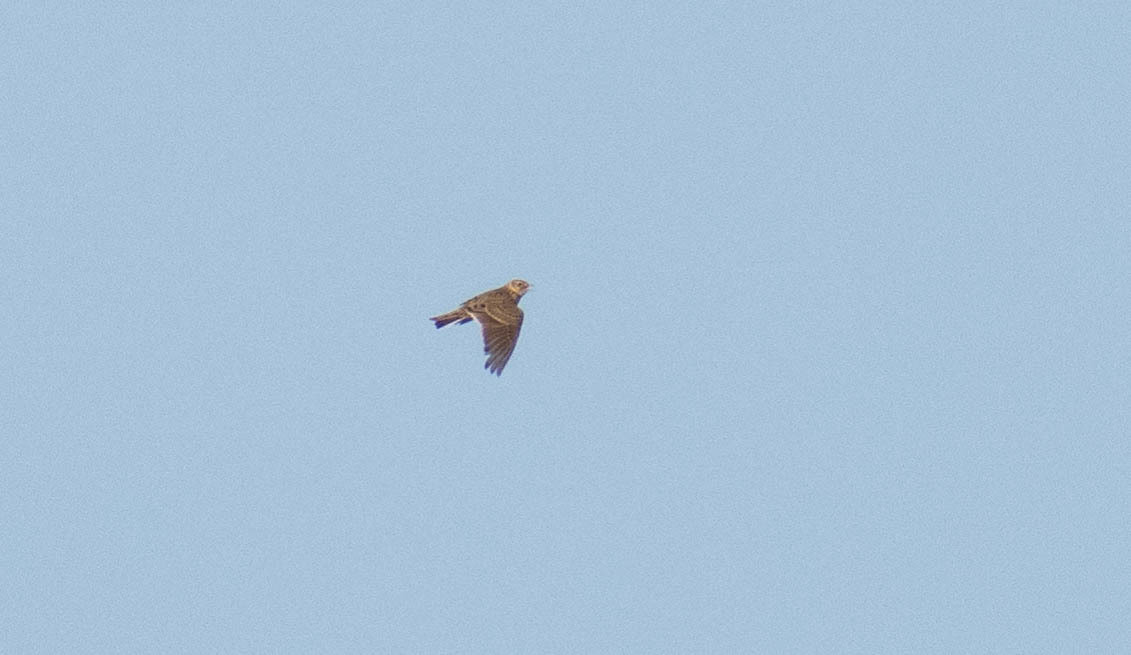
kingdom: Animalia
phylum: Chordata
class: Aves
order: Passeriformes
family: Alaudidae
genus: Alauda
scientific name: Alauda arvensis
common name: Eurasian skylark
